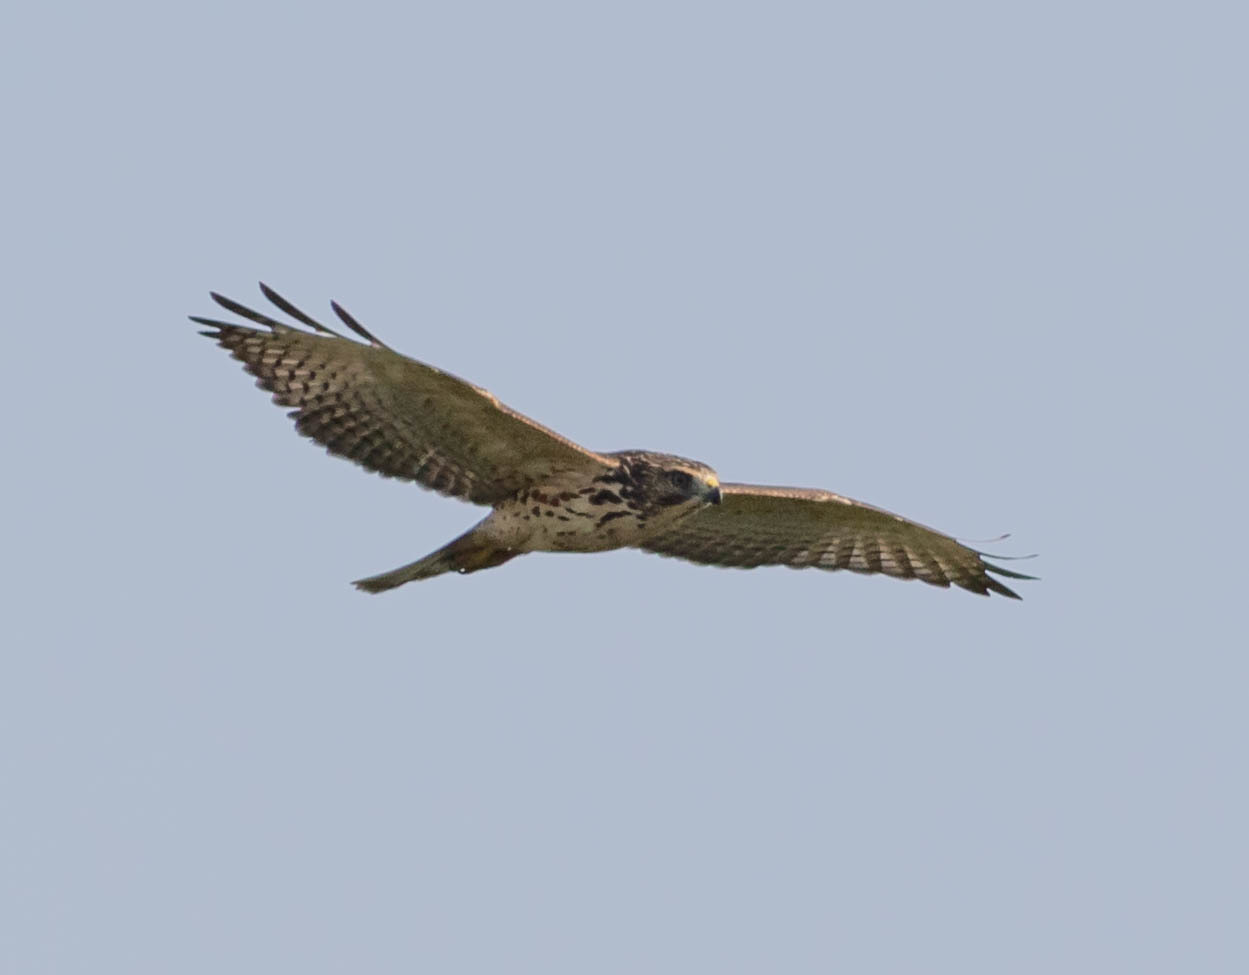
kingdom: Animalia
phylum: Chordata
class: Aves
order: Accipitriformes
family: Accipitridae
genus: Buteo
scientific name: Buteo platypterus
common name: Broad-winged hawk
